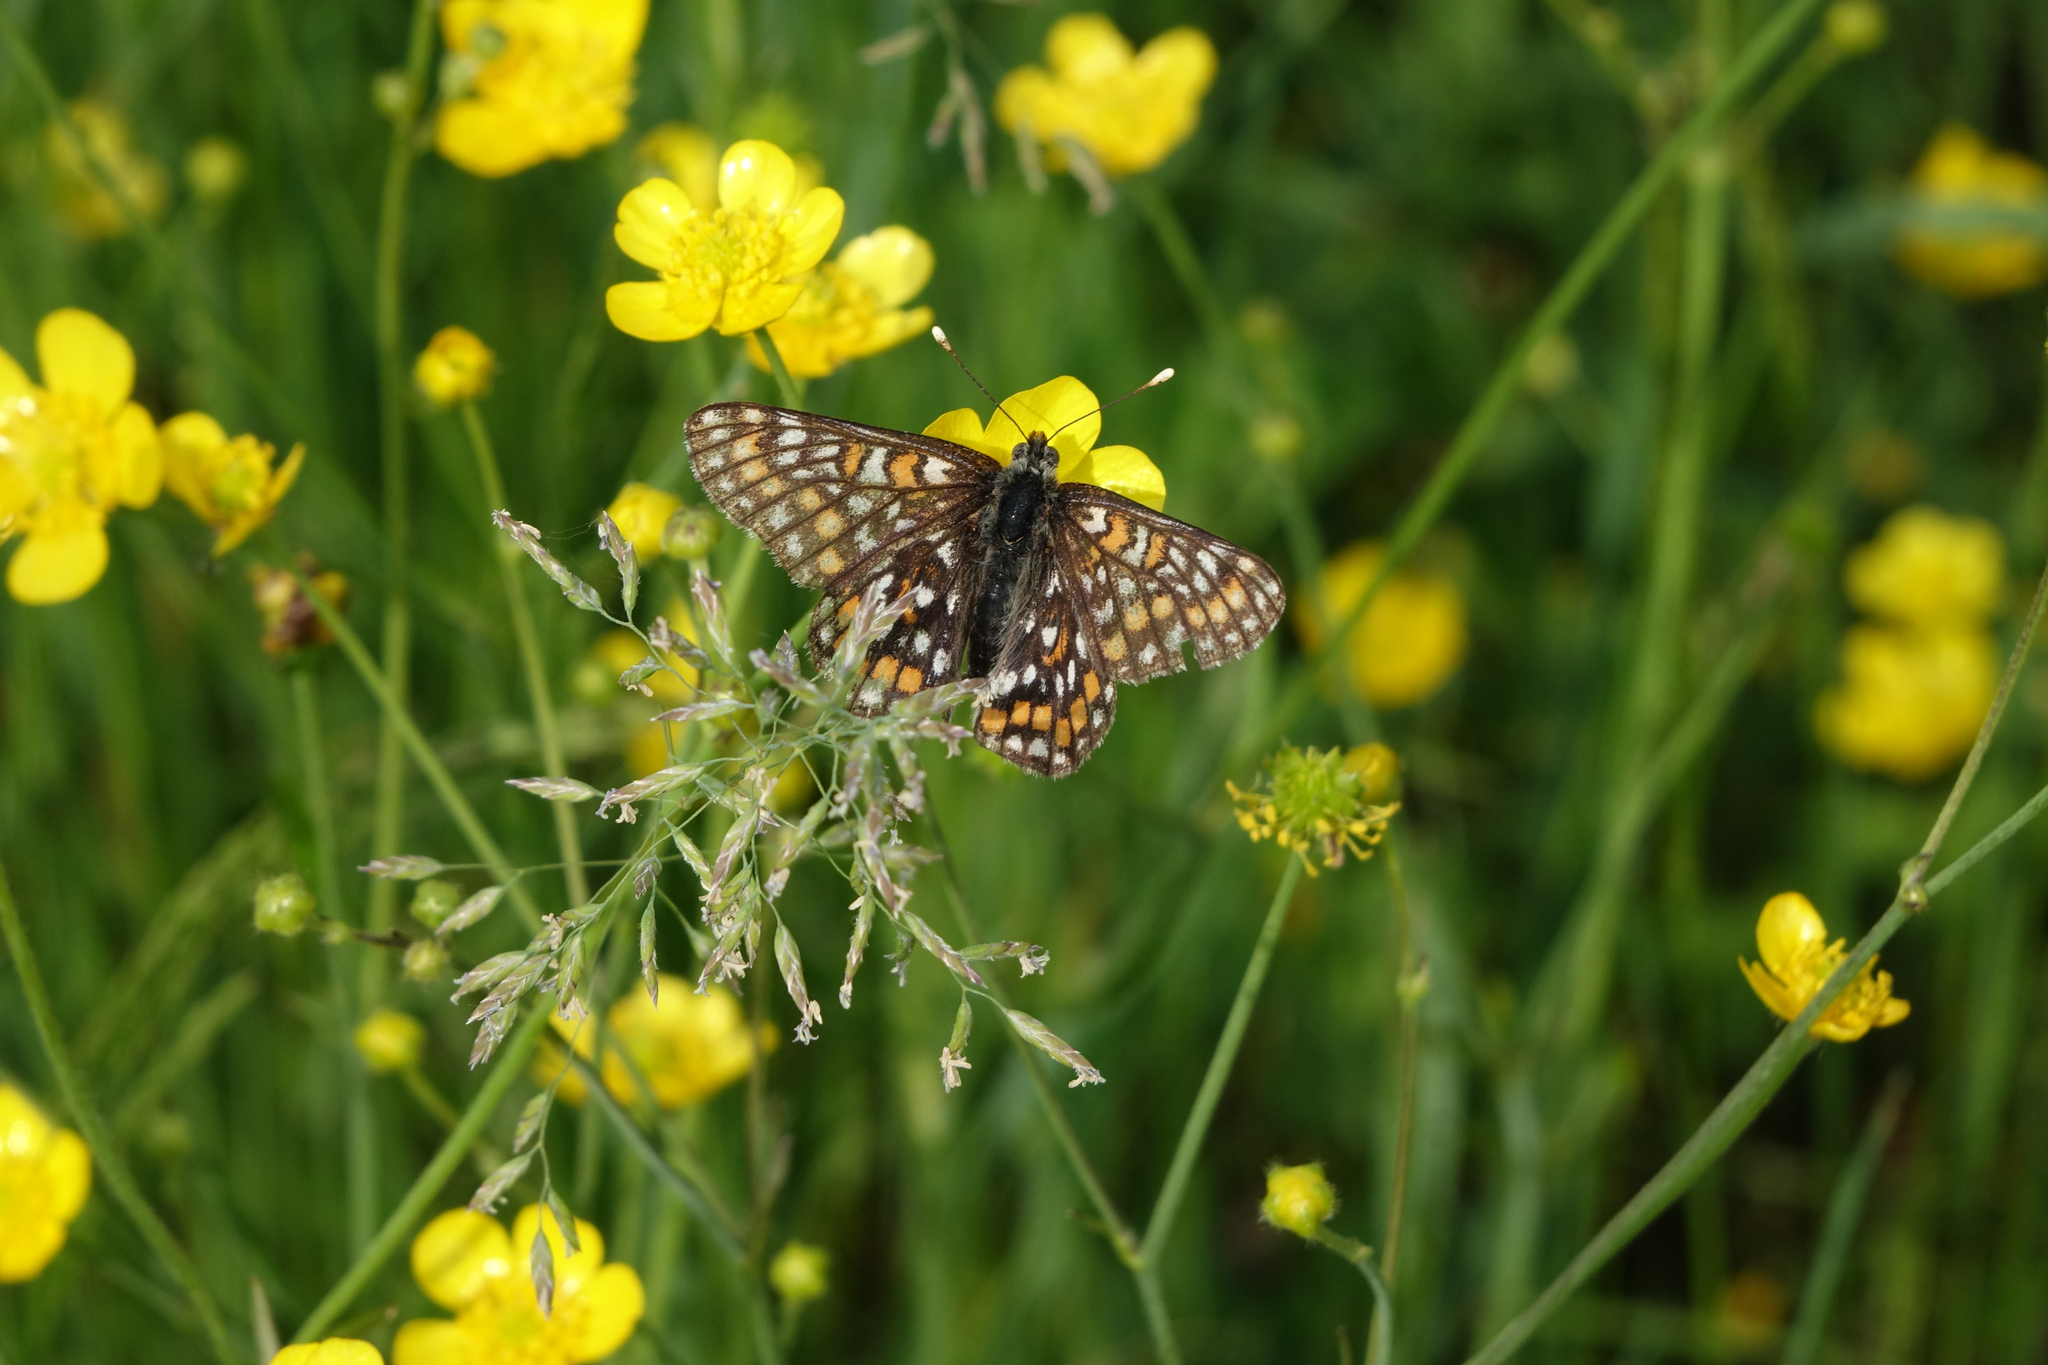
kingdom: Animalia
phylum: Arthropoda
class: Insecta
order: Lepidoptera
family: Nymphalidae
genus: Euphydryas
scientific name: Euphydryas maturna
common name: Scarce fritillary
